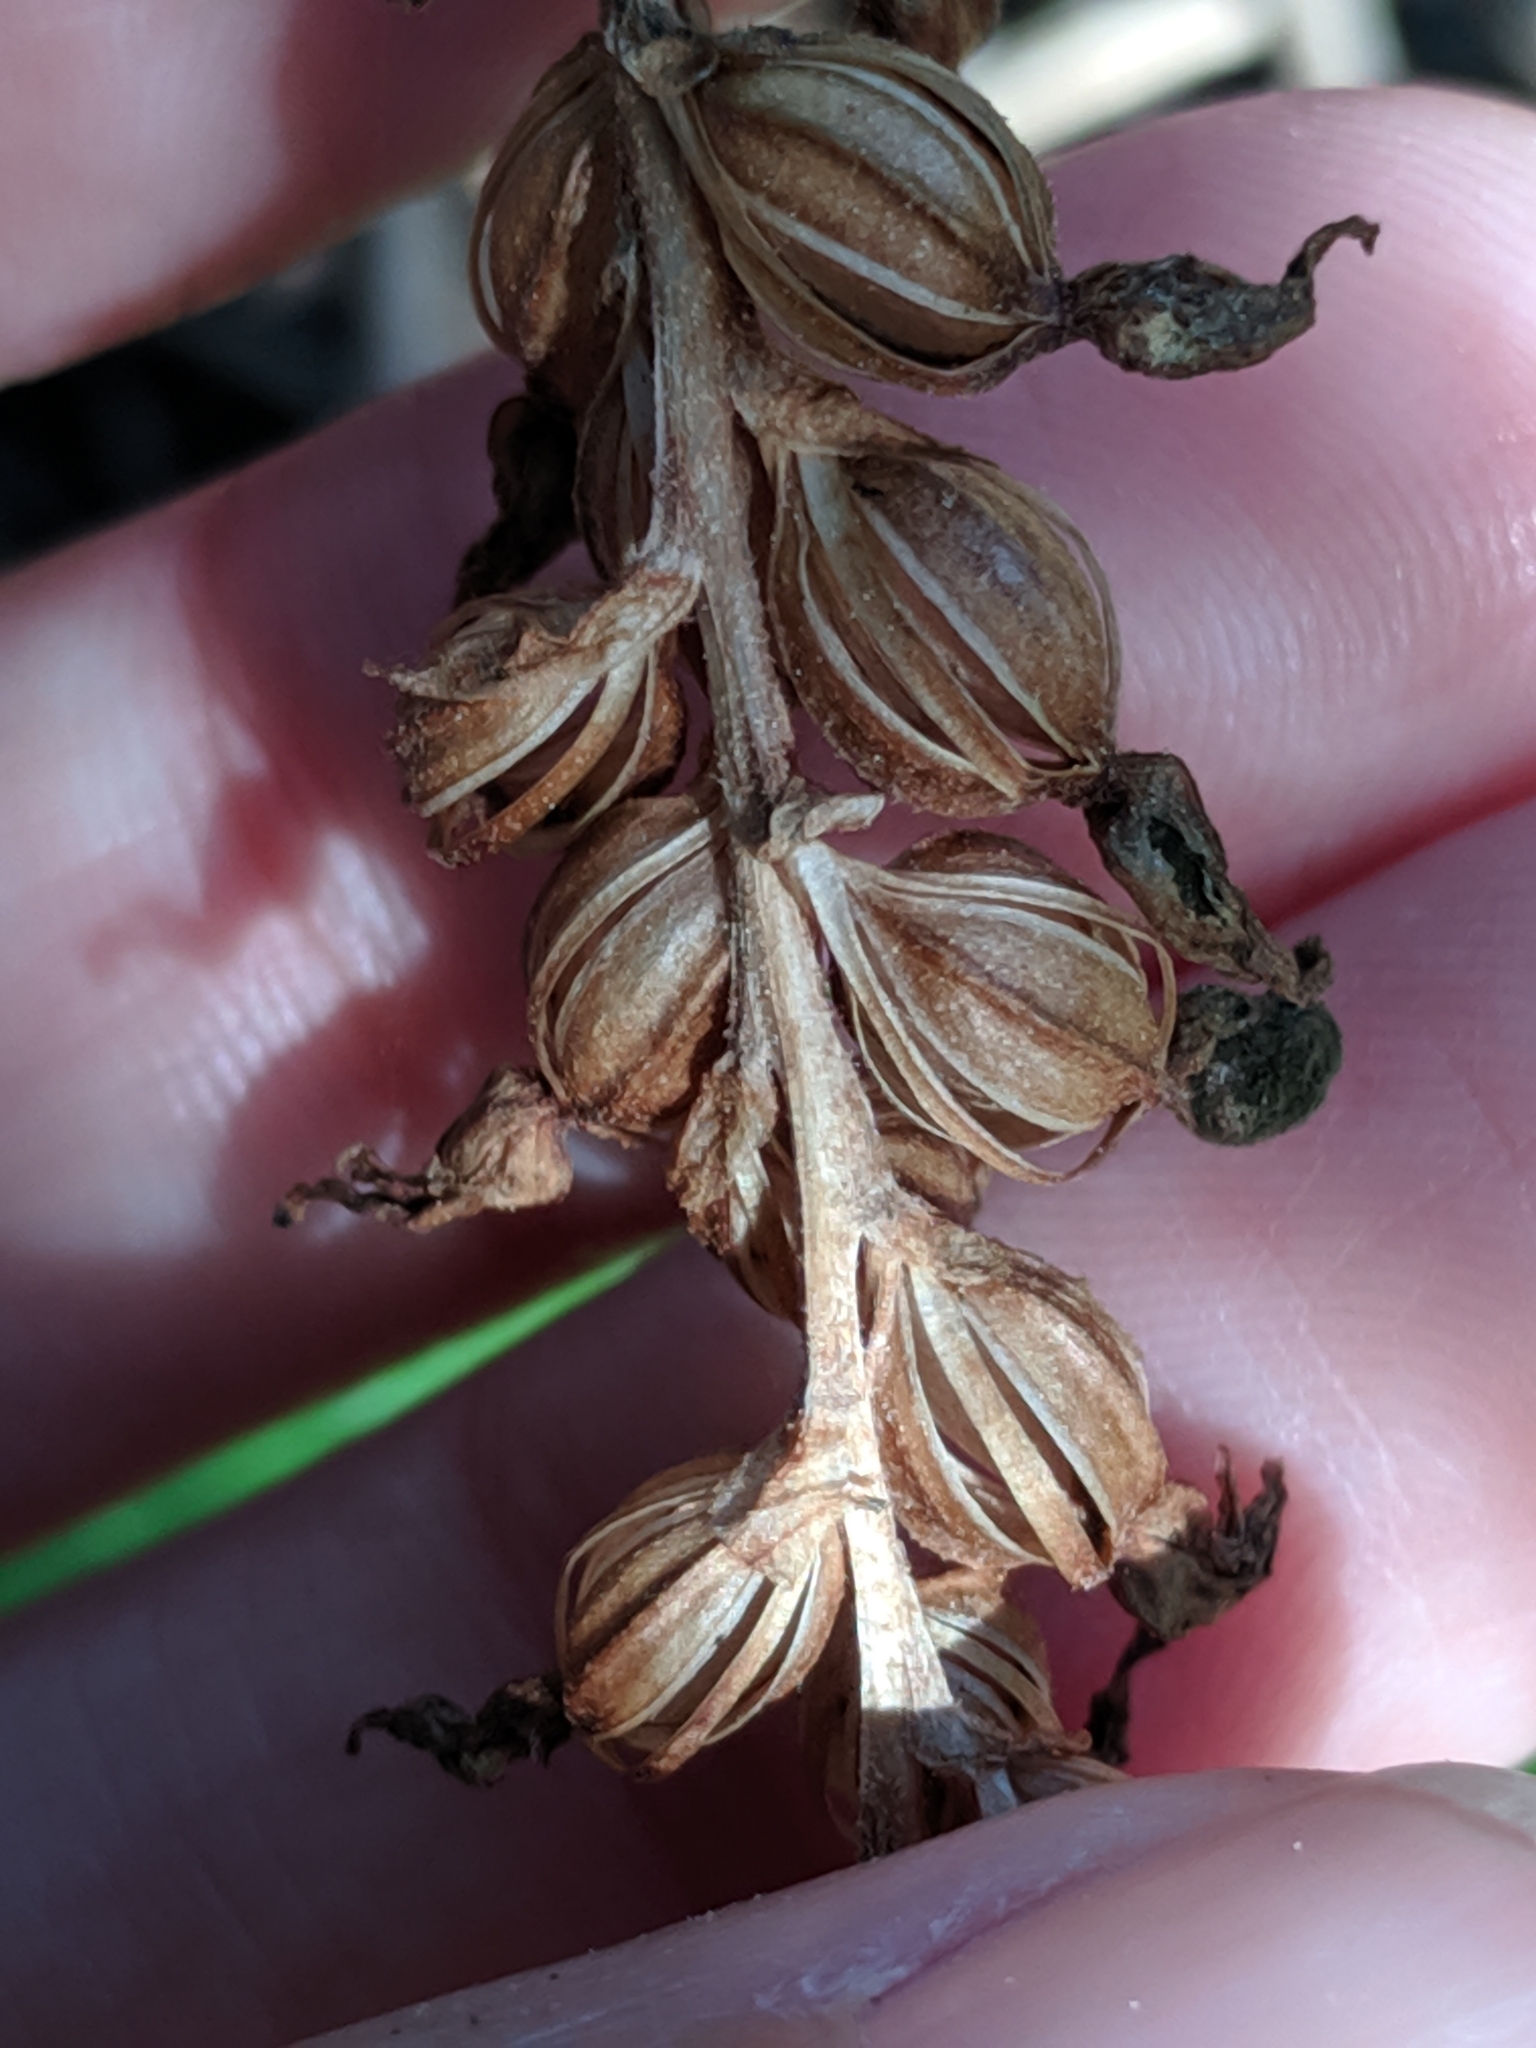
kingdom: Plantae
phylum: Tracheophyta
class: Liliopsida
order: Asparagales
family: Orchidaceae
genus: Goodyera
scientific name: Goodyera oblongifolia
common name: Giant rattlesnake-plantain
